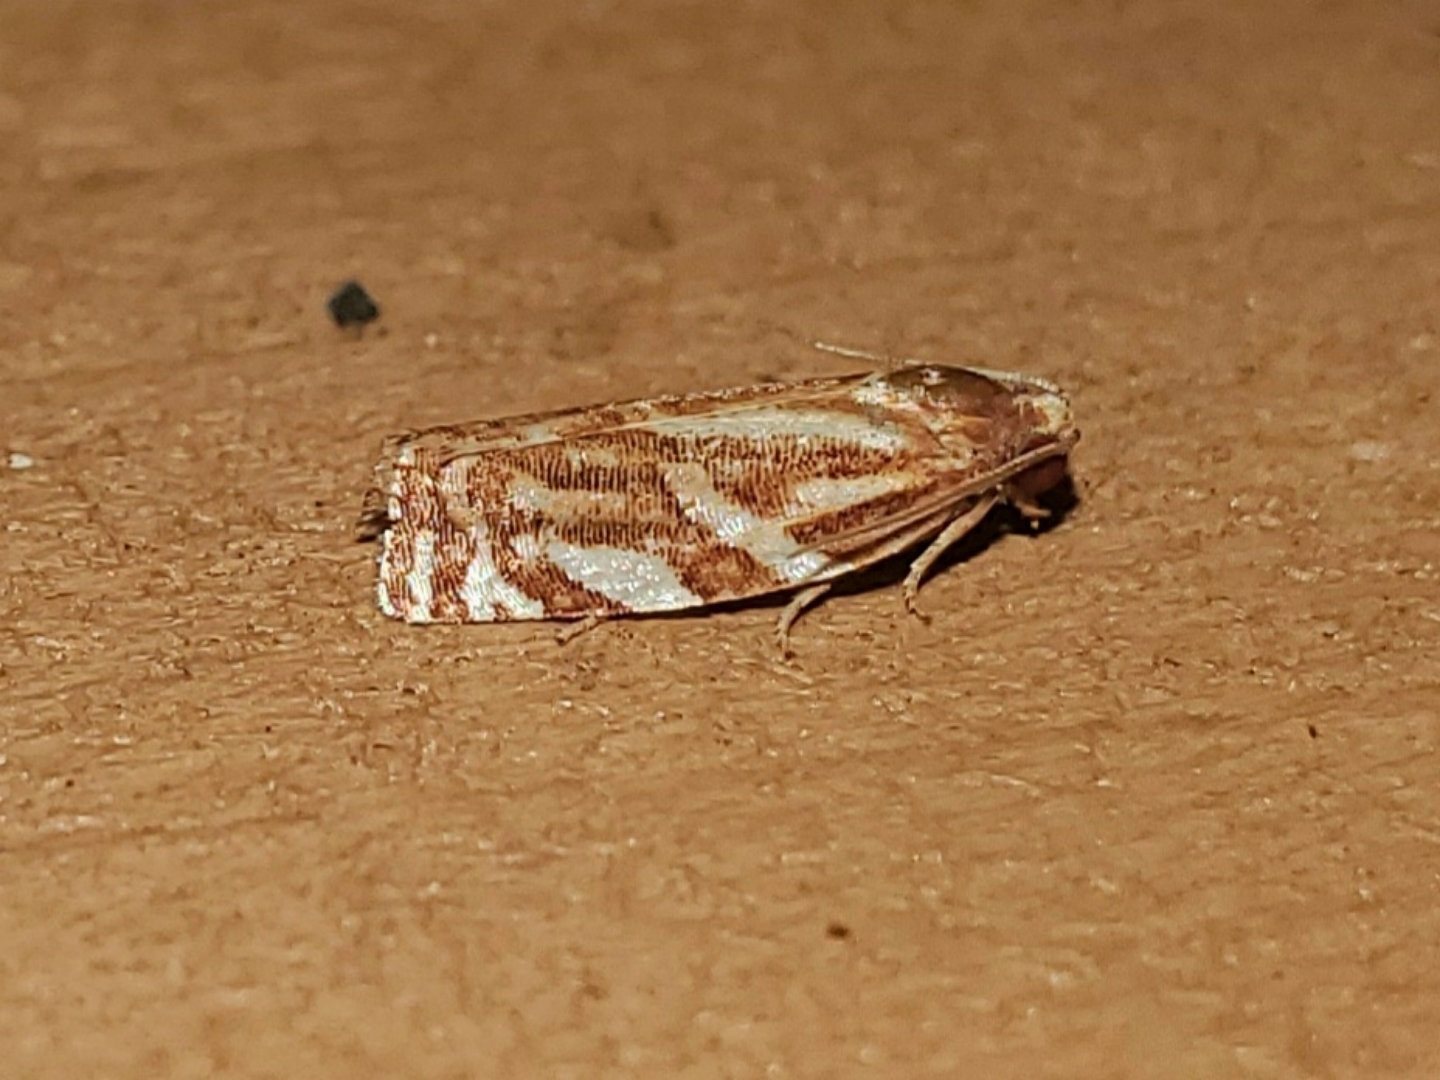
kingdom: Animalia
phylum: Arthropoda
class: Insecta
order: Lepidoptera
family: Tortricidae
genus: Choristoneura
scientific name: Choristoneura argentifasciata
